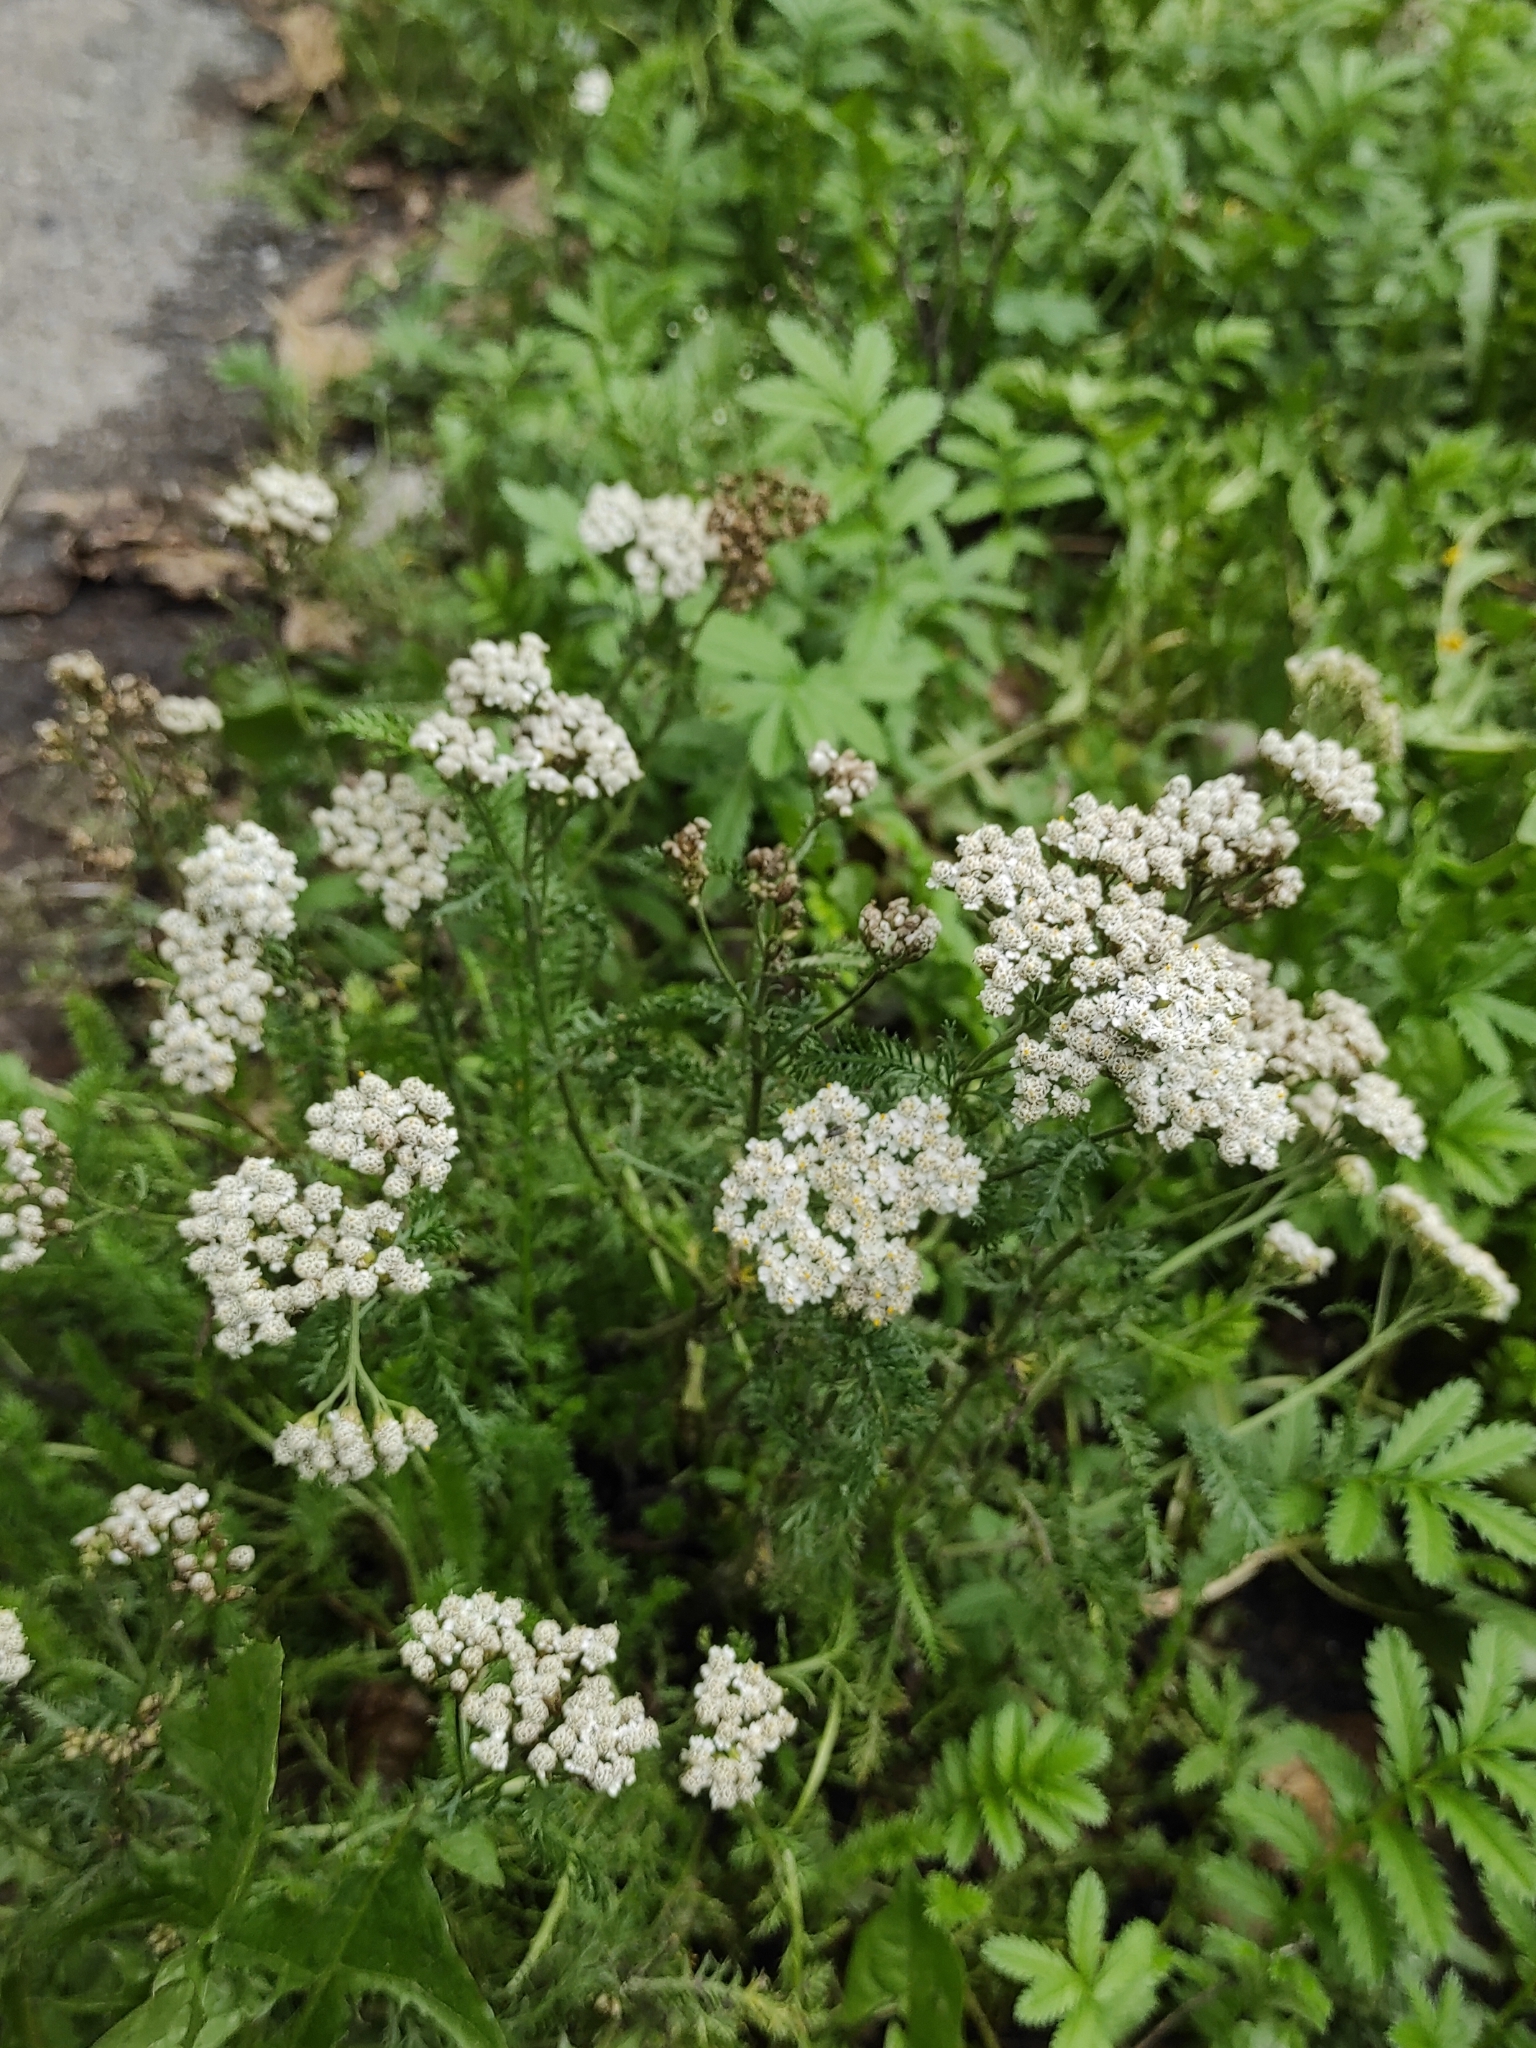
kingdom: Plantae
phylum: Tracheophyta
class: Magnoliopsida
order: Asterales
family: Asteraceae
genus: Achillea
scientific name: Achillea millefolium
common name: Yarrow
